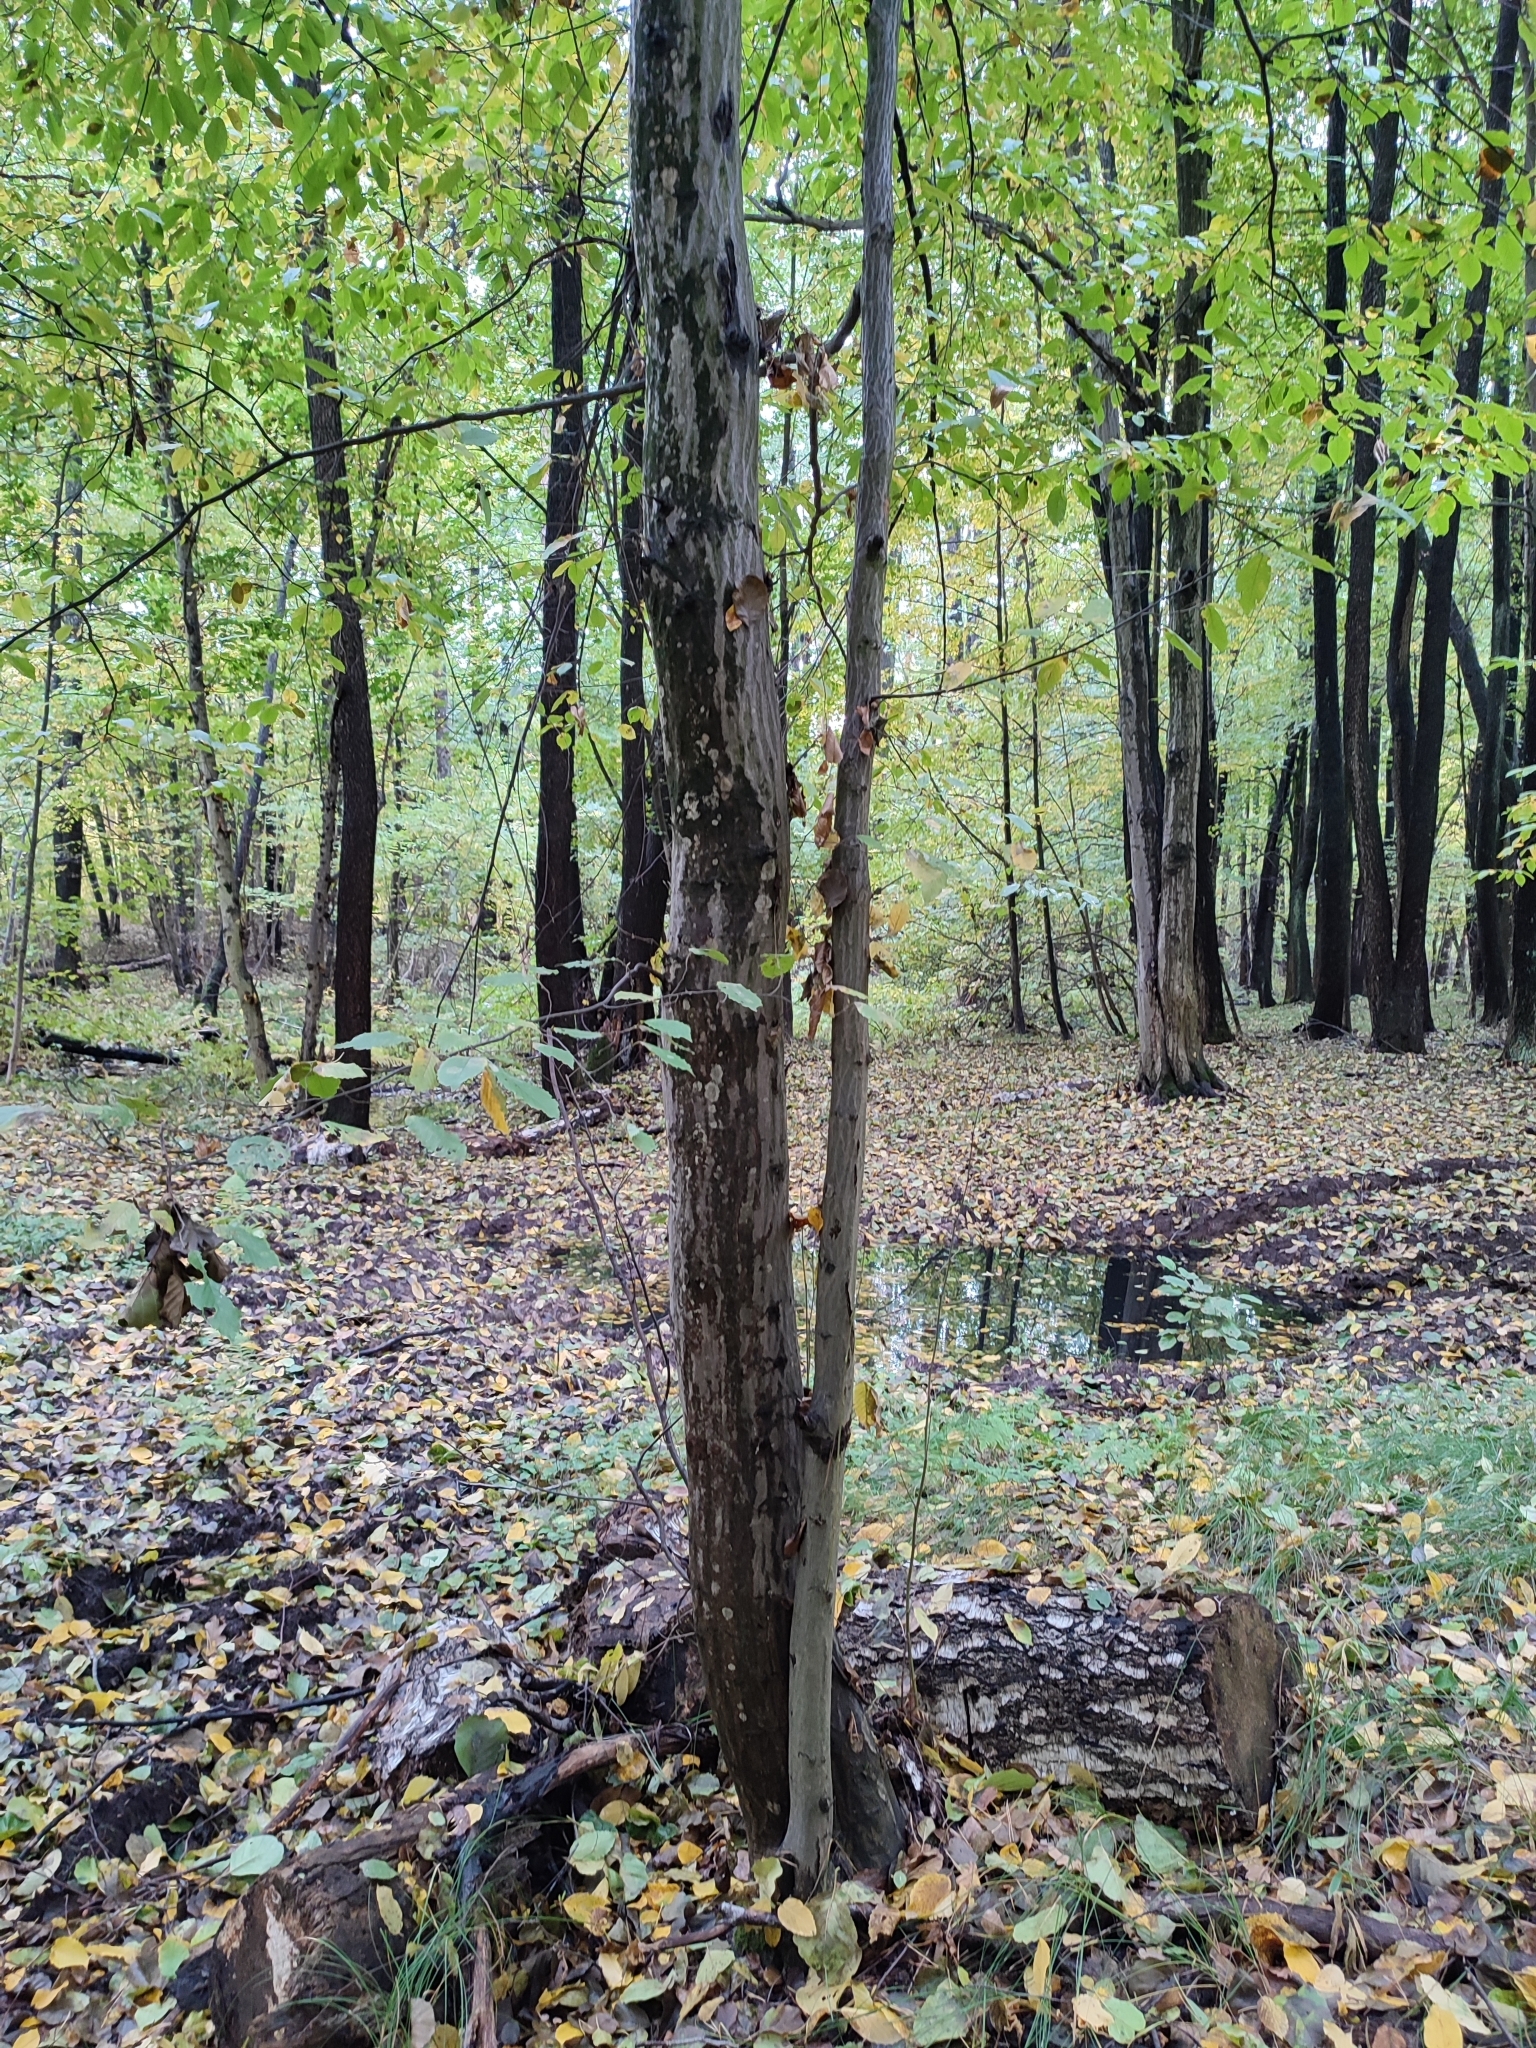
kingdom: Plantae
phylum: Tracheophyta
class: Magnoliopsida
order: Fagales
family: Betulaceae
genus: Carpinus
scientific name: Carpinus betulus
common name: Hornbeam
